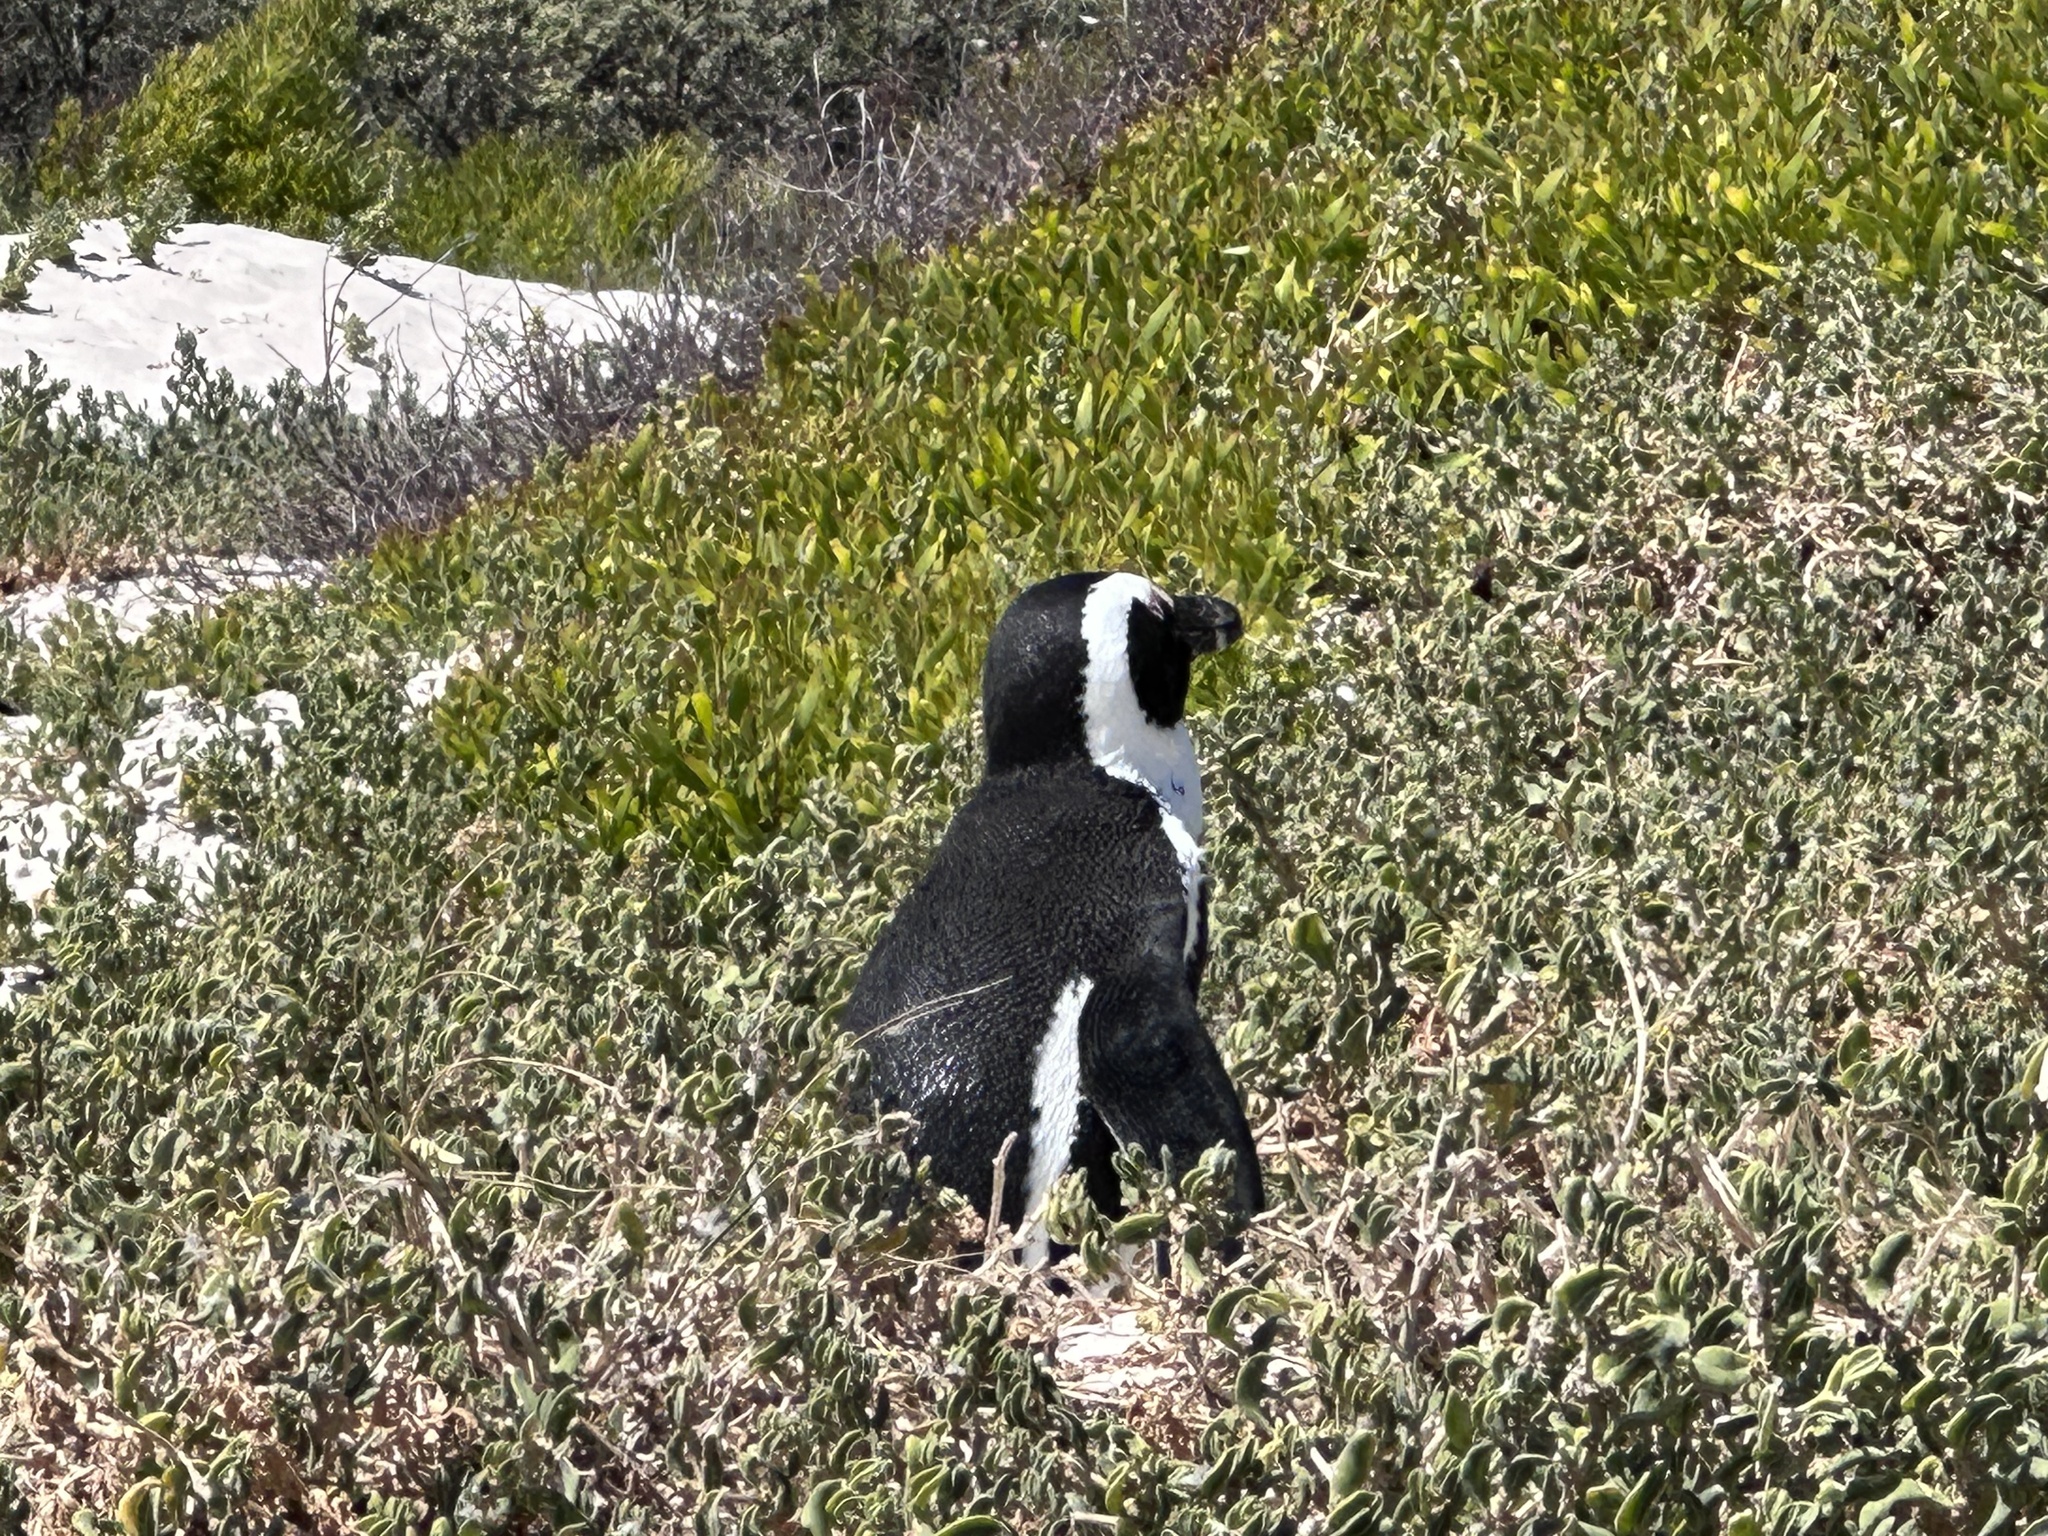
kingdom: Animalia
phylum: Chordata
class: Aves
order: Sphenisciformes
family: Spheniscidae
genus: Spheniscus
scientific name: Spheniscus demersus
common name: African penguin
